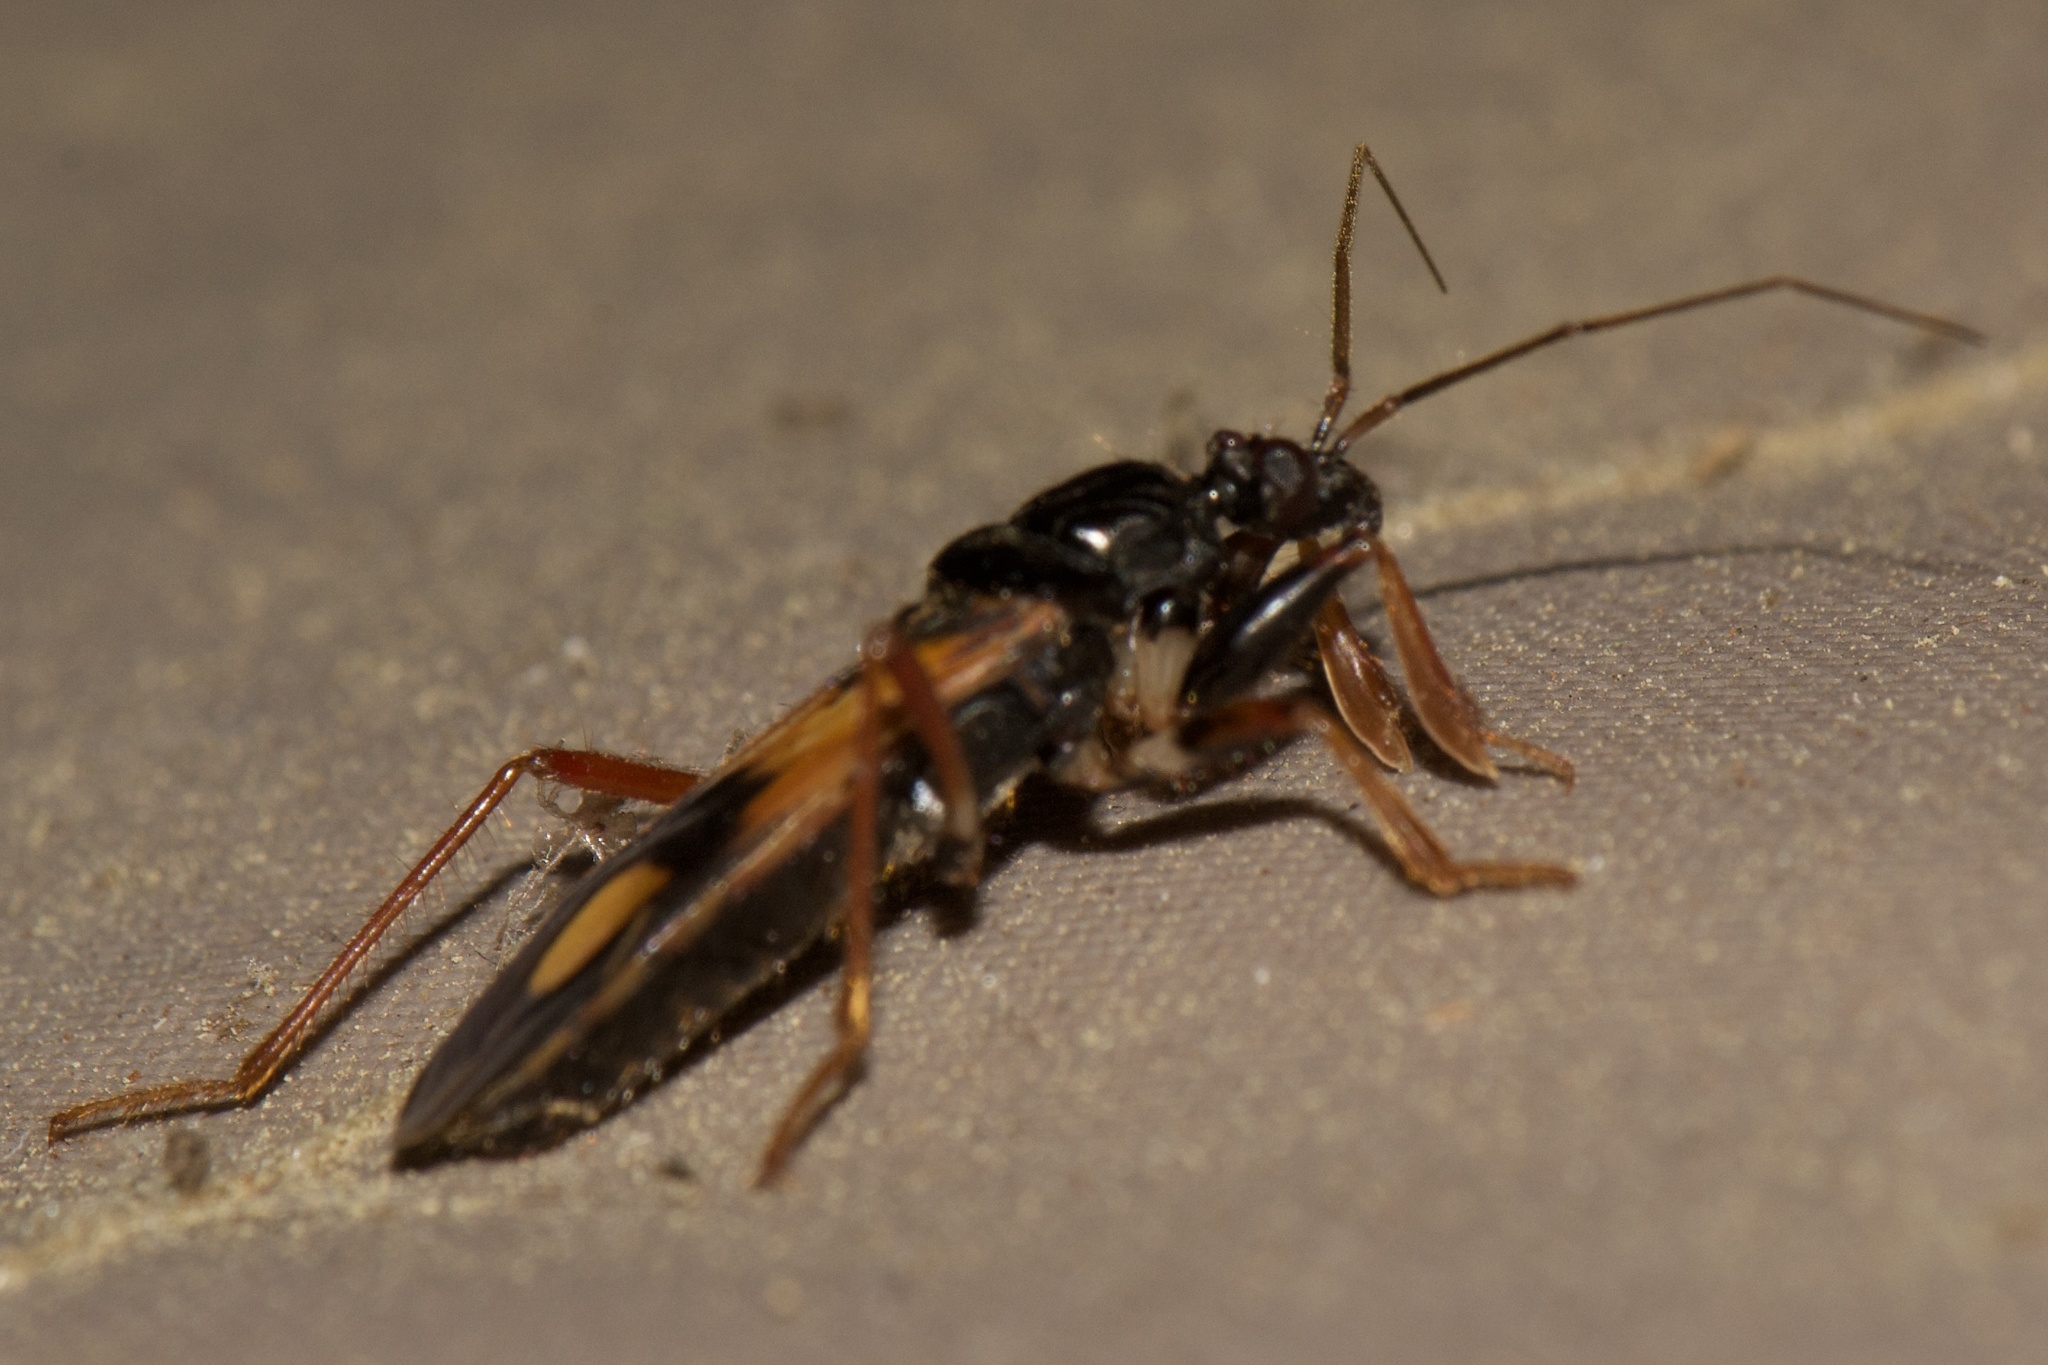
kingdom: Animalia
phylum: Arthropoda
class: Insecta
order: Hemiptera
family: Reduviidae
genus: Rasahus
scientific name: Rasahus biguttatus
